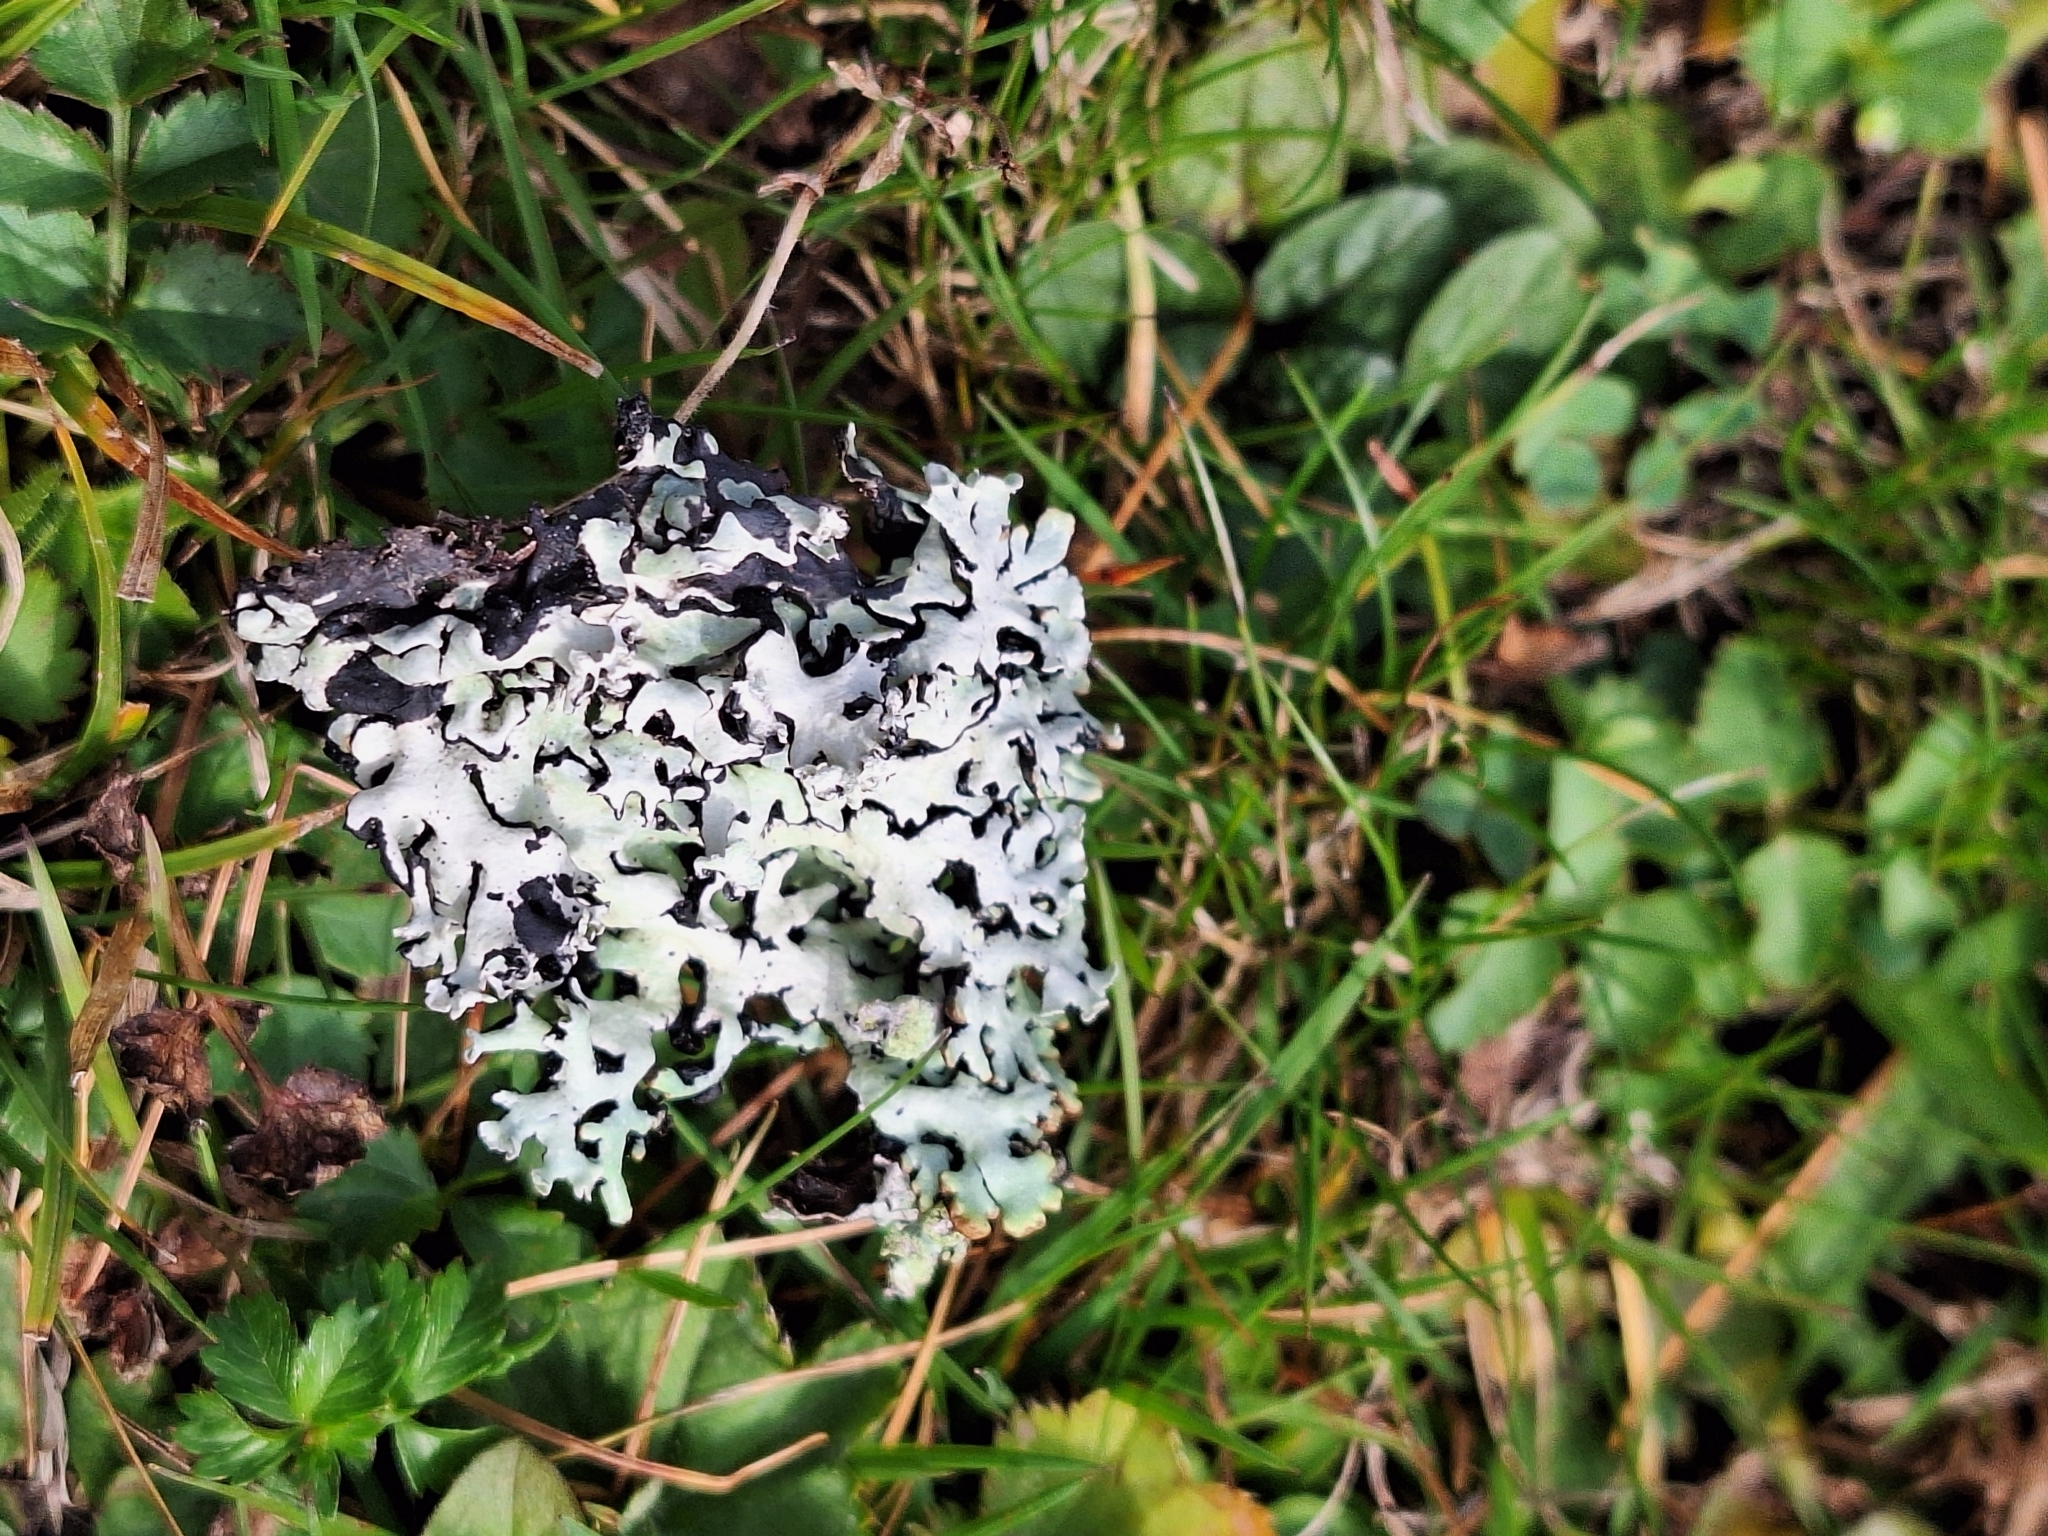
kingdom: Fungi
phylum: Ascomycota
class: Lecanoromycetes
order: Lecanorales
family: Parmeliaceae
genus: Hypogymnia
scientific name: Hypogymnia physodes
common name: Dark crottle
